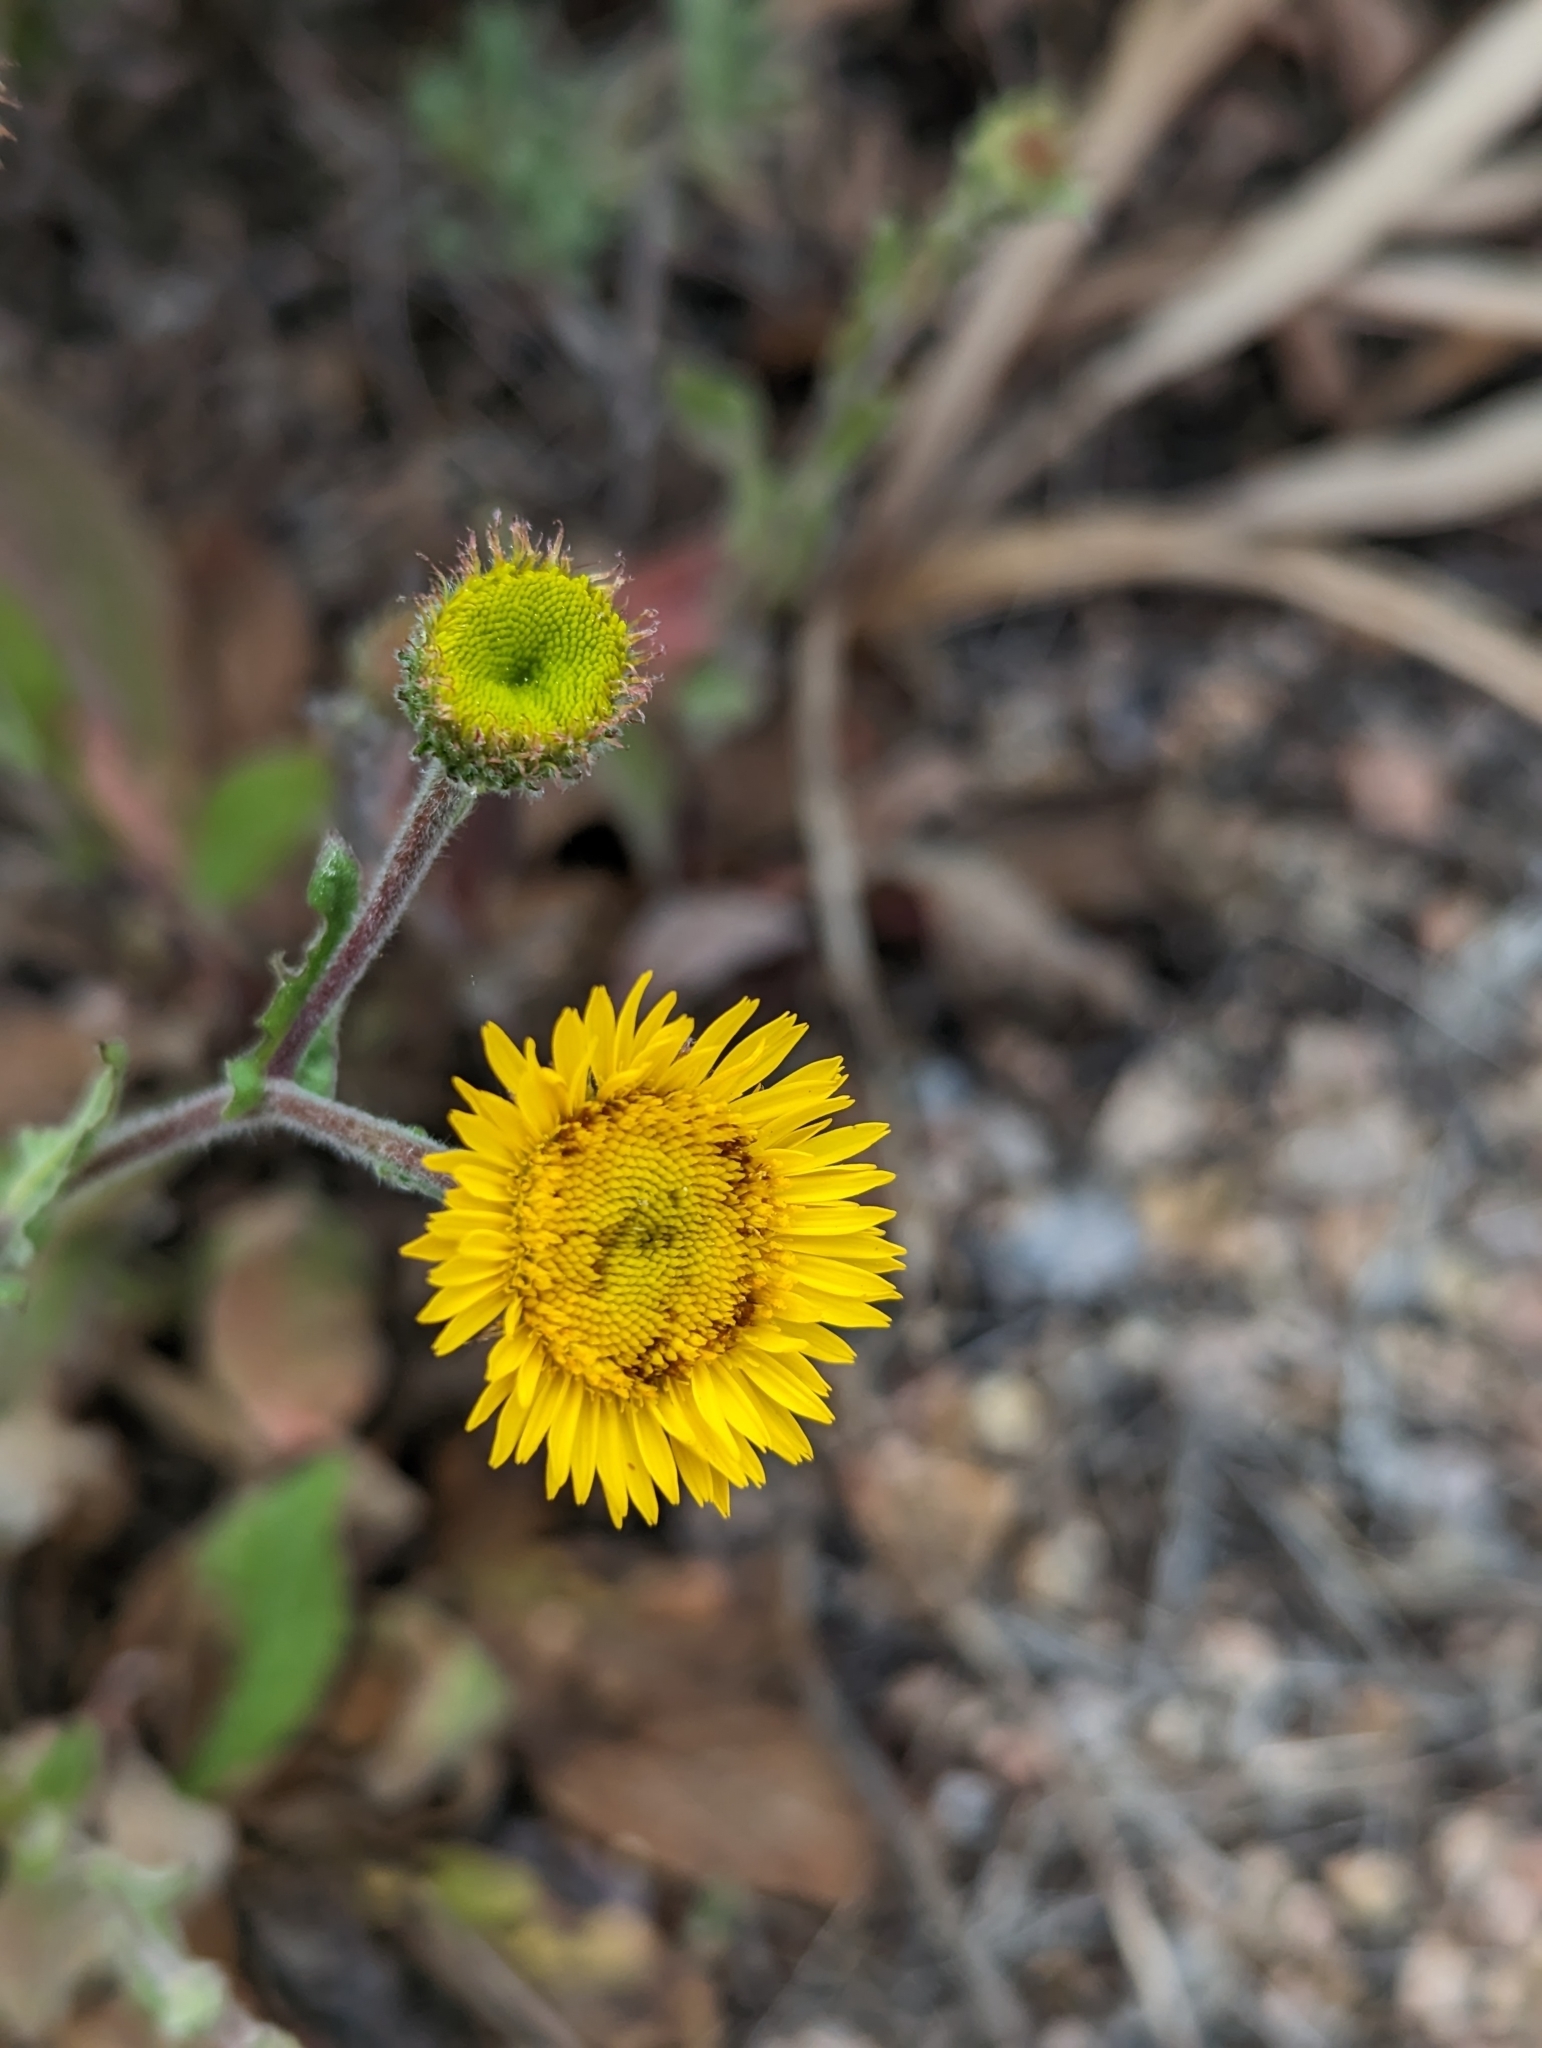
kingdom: Plantae
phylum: Tracheophyta
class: Magnoliopsida
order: Asterales
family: Asteraceae
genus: Pulicaria
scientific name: Pulicaria odora
